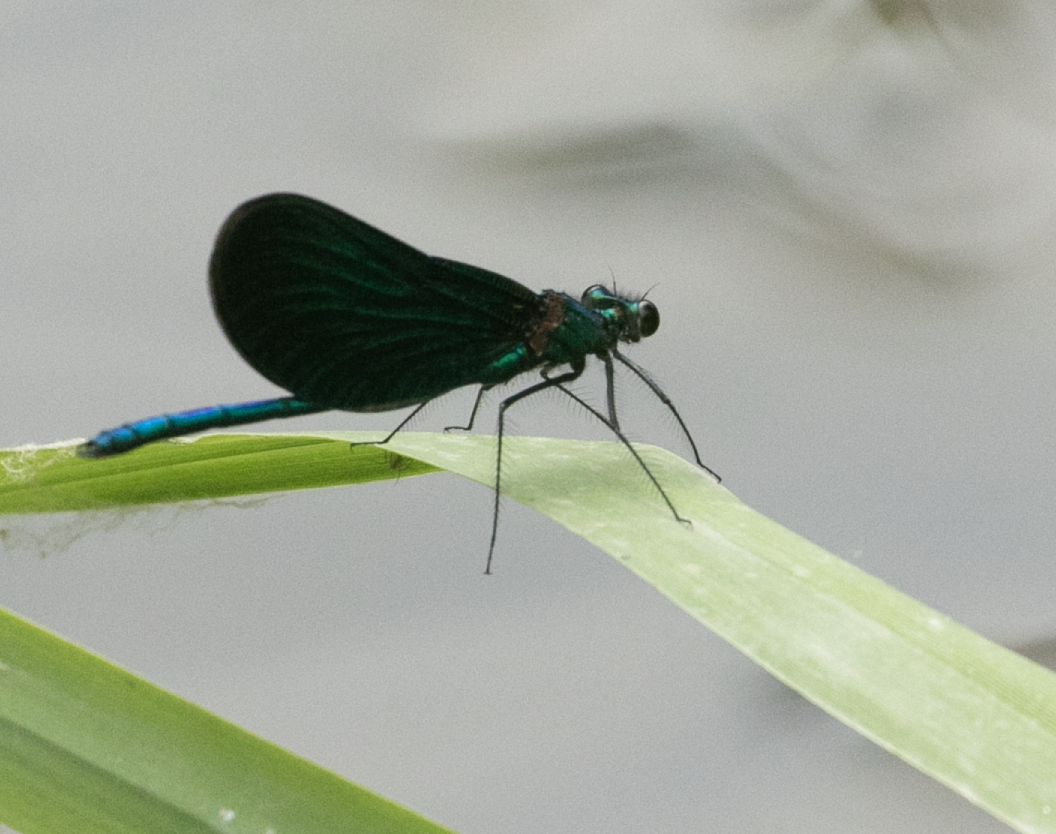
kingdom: Animalia
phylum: Arthropoda
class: Insecta
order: Odonata
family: Calopterygidae
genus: Calopteryx
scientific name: Calopteryx virgo
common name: Beautiful demoiselle
